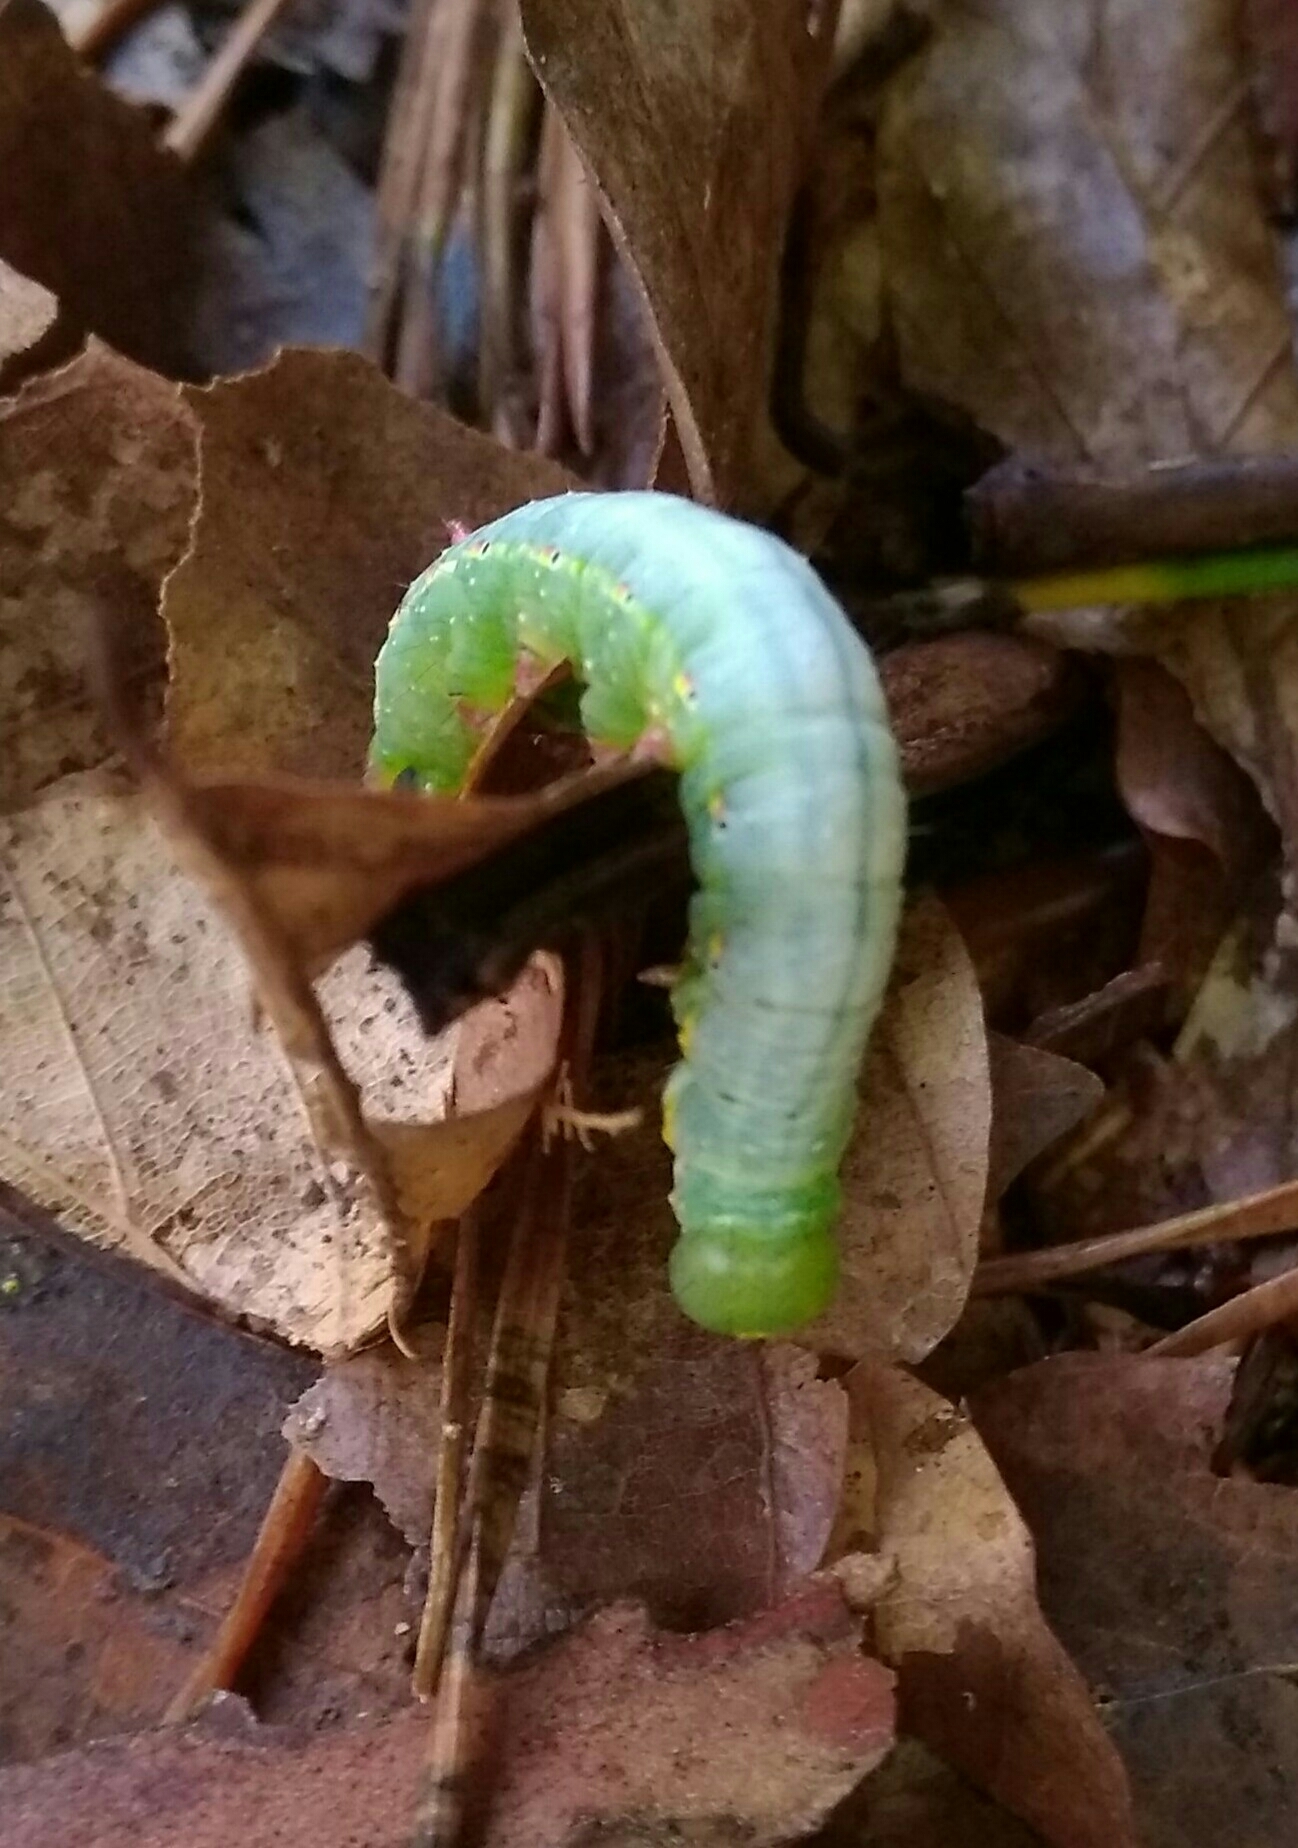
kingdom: Animalia
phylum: Arthropoda
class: Insecta
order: Lepidoptera
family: Notodontidae
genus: Ptilodon
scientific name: Ptilodon capucina
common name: Coxcomb prominent
